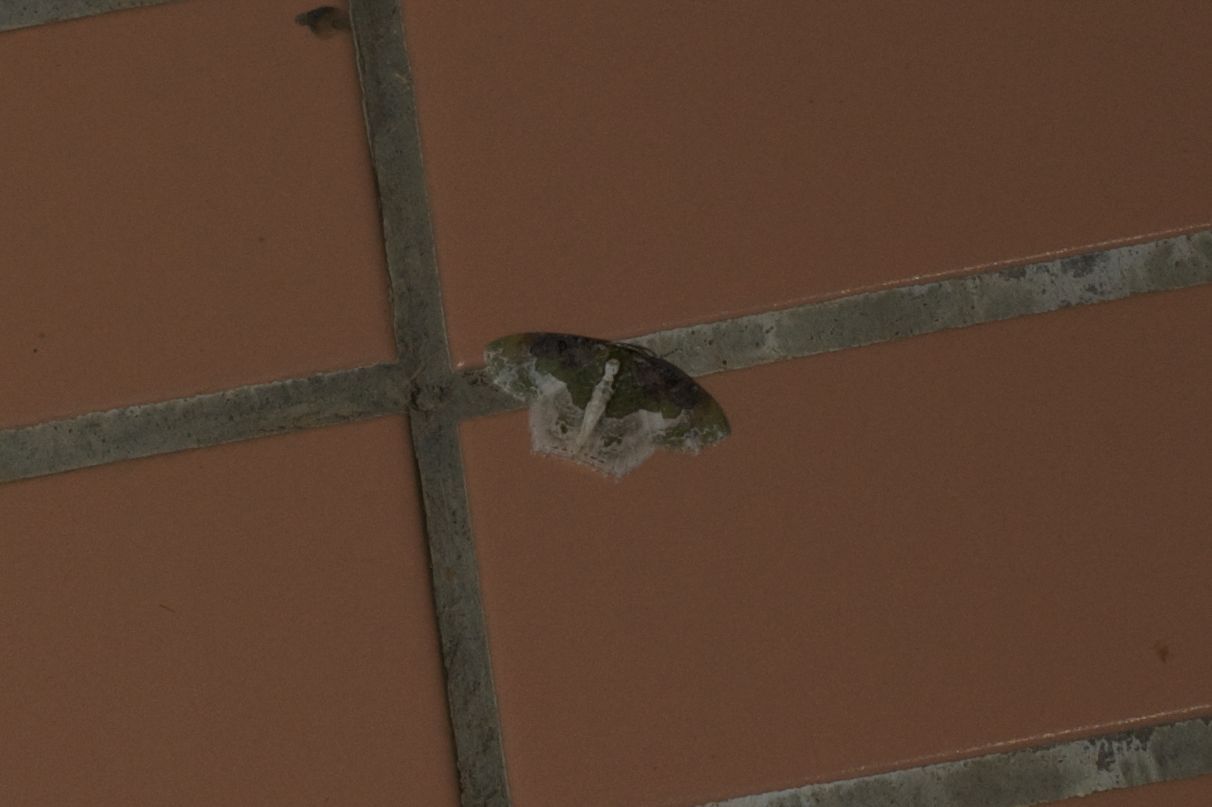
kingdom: Animalia
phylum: Arthropoda
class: Insecta
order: Lepidoptera
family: Geometridae
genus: Eucyclodes
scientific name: Eucyclodes semialba
